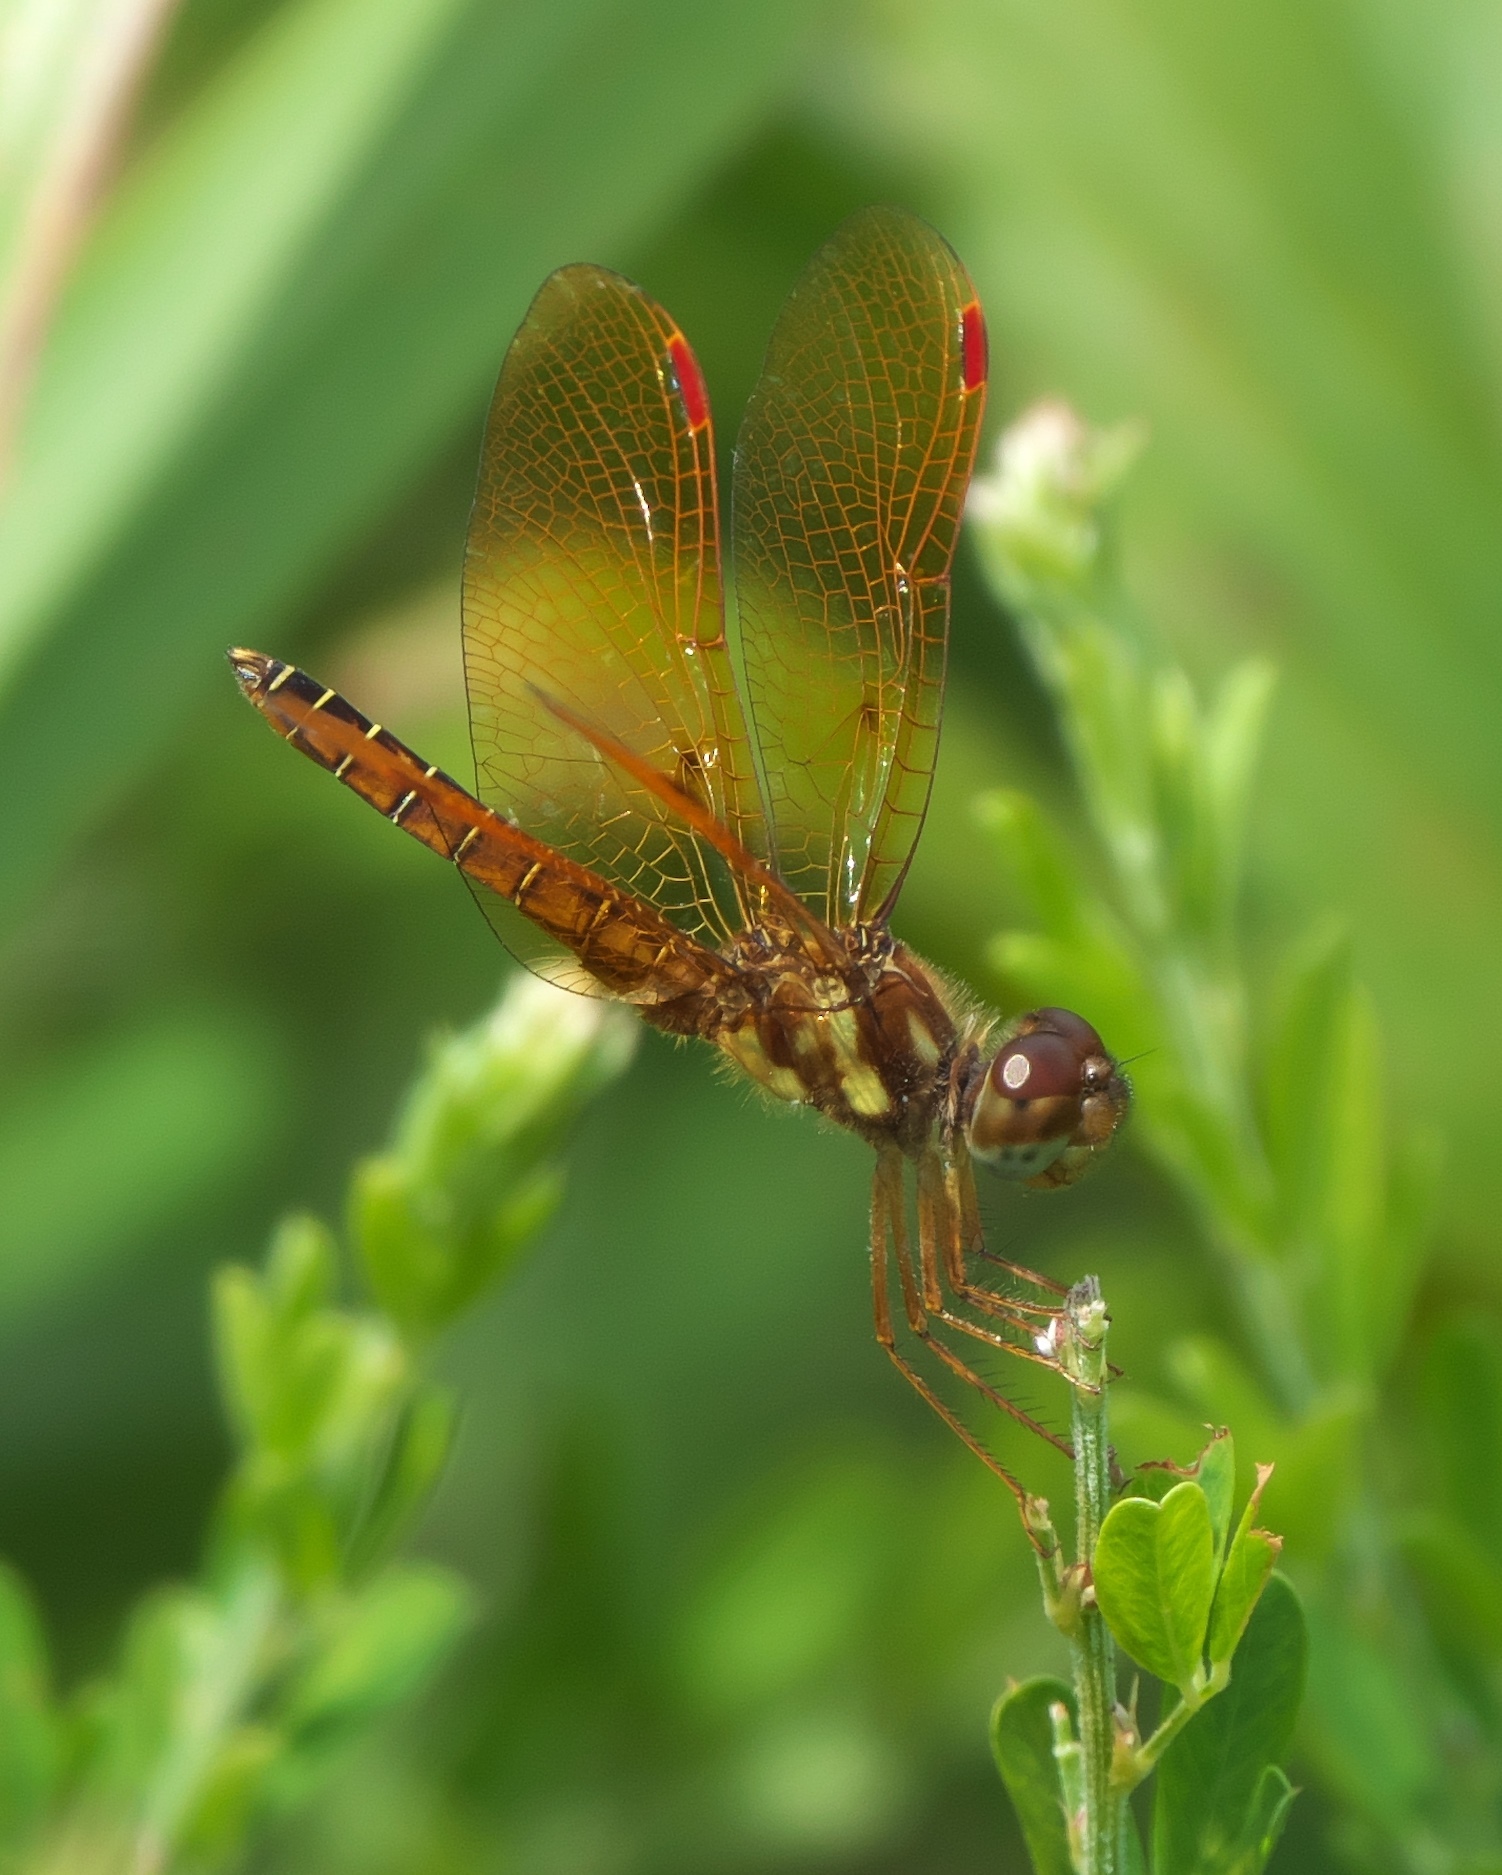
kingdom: Animalia
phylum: Arthropoda
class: Insecta
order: Odonata
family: Libellulidae
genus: Perithemis
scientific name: Perithemis tenera
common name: Eastern amberwing
